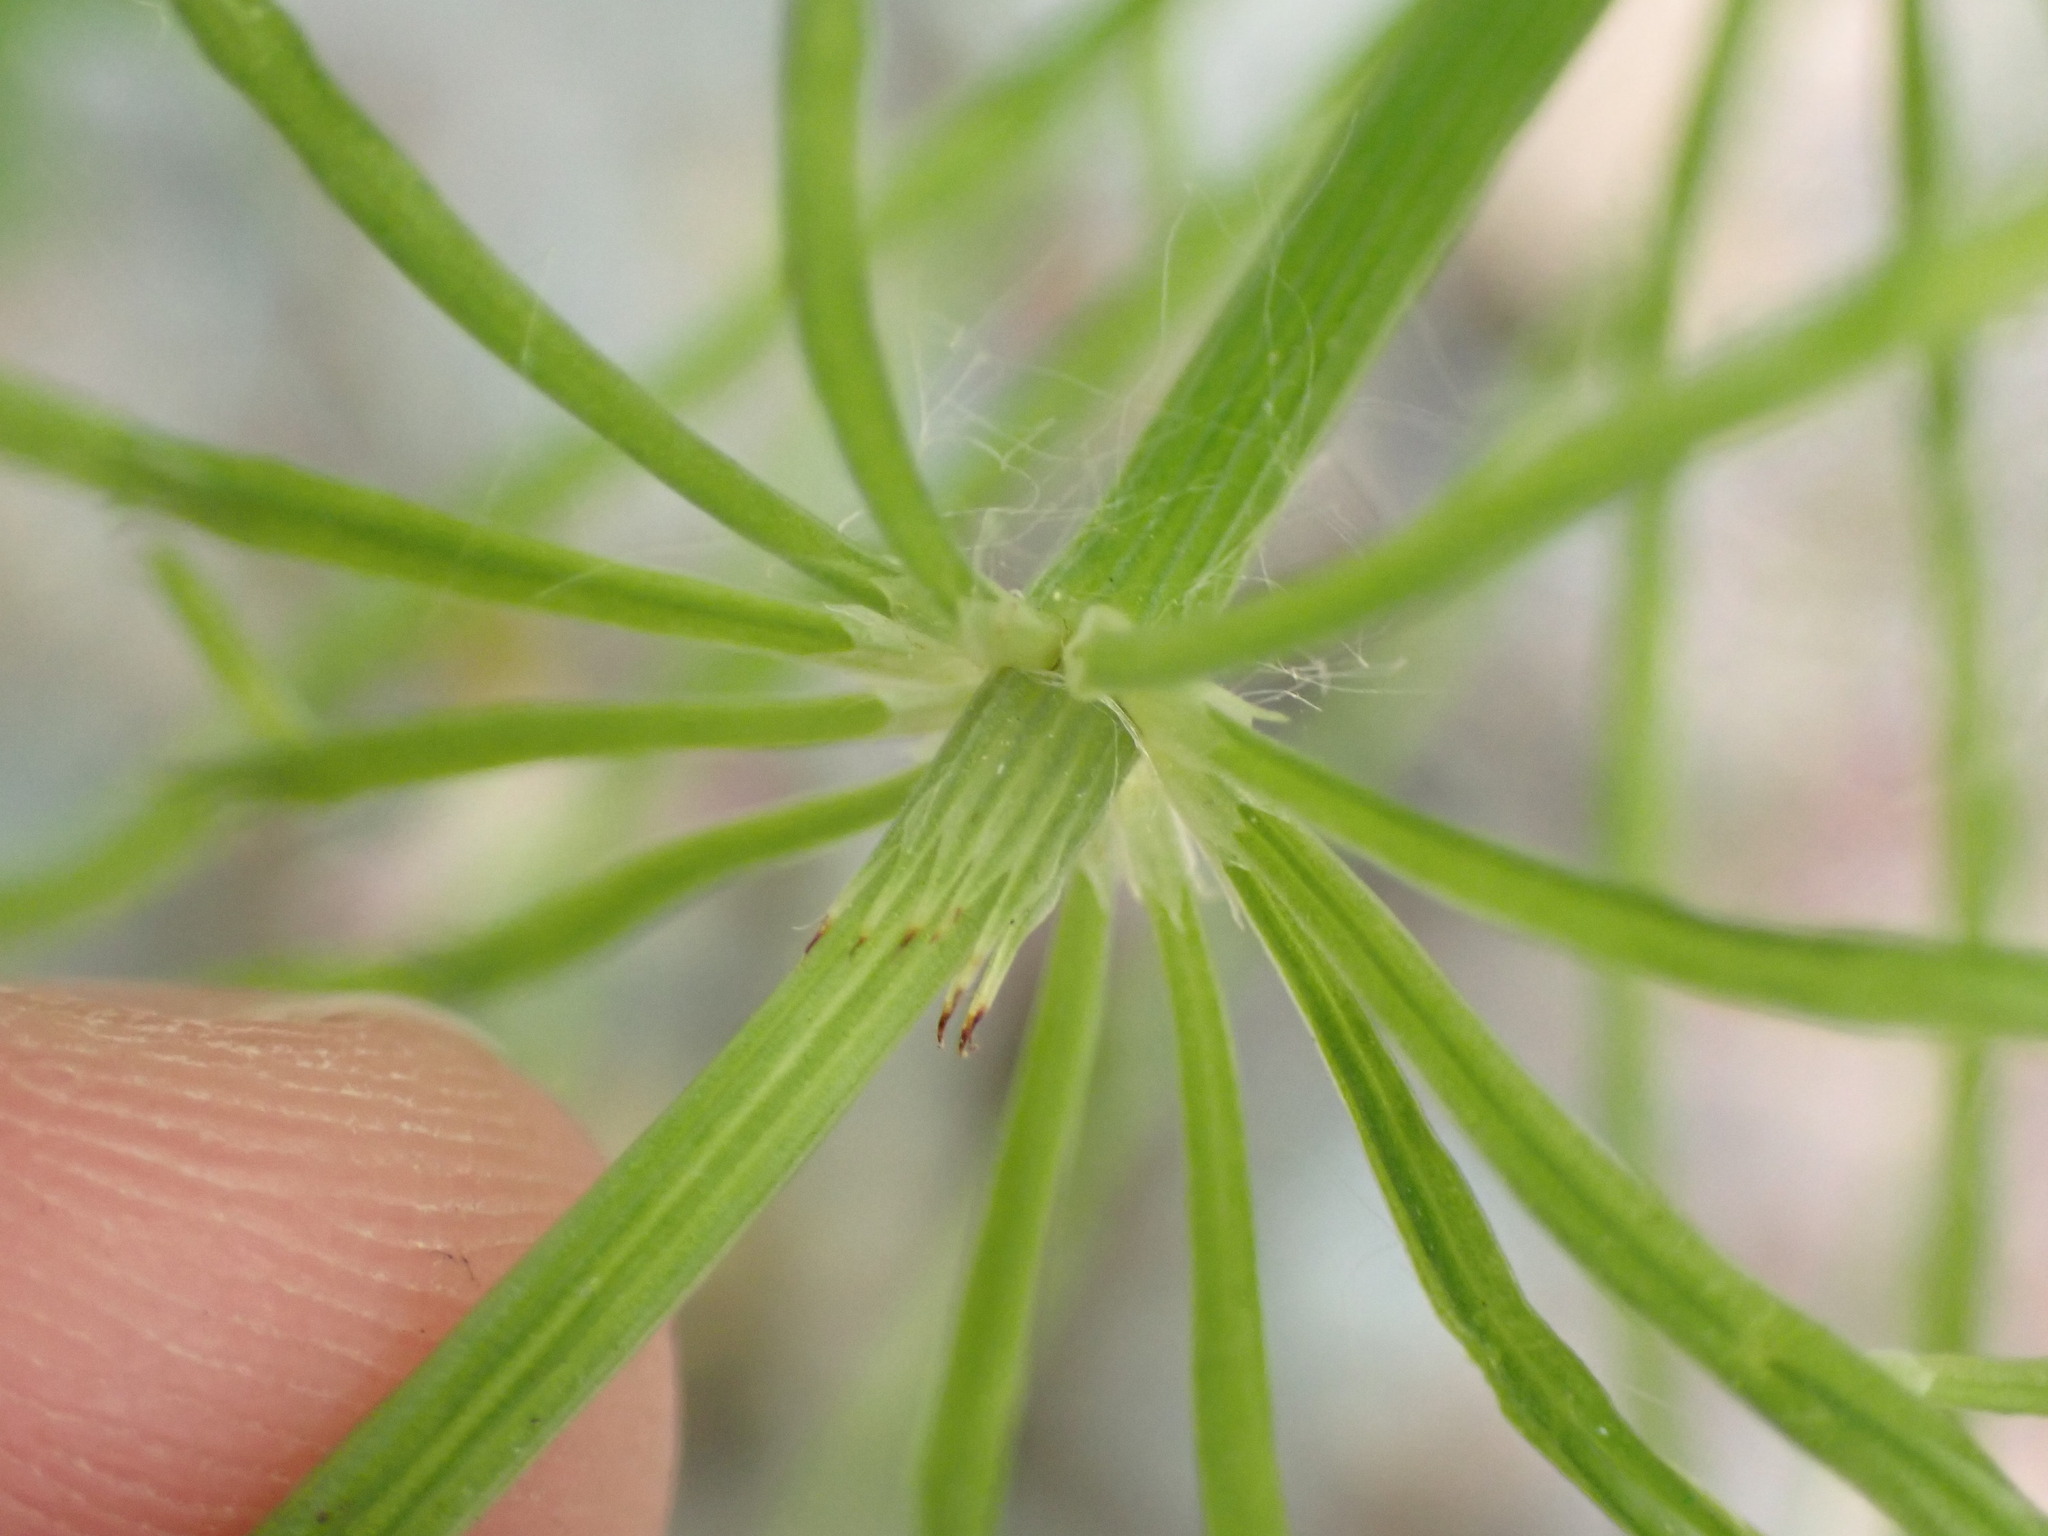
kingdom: Plantae
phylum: Tracheophyta
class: Polypodiopsida
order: Equisetales
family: Equisetaceae
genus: Equisetum
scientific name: Equisetum arvense
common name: Field horsetail
